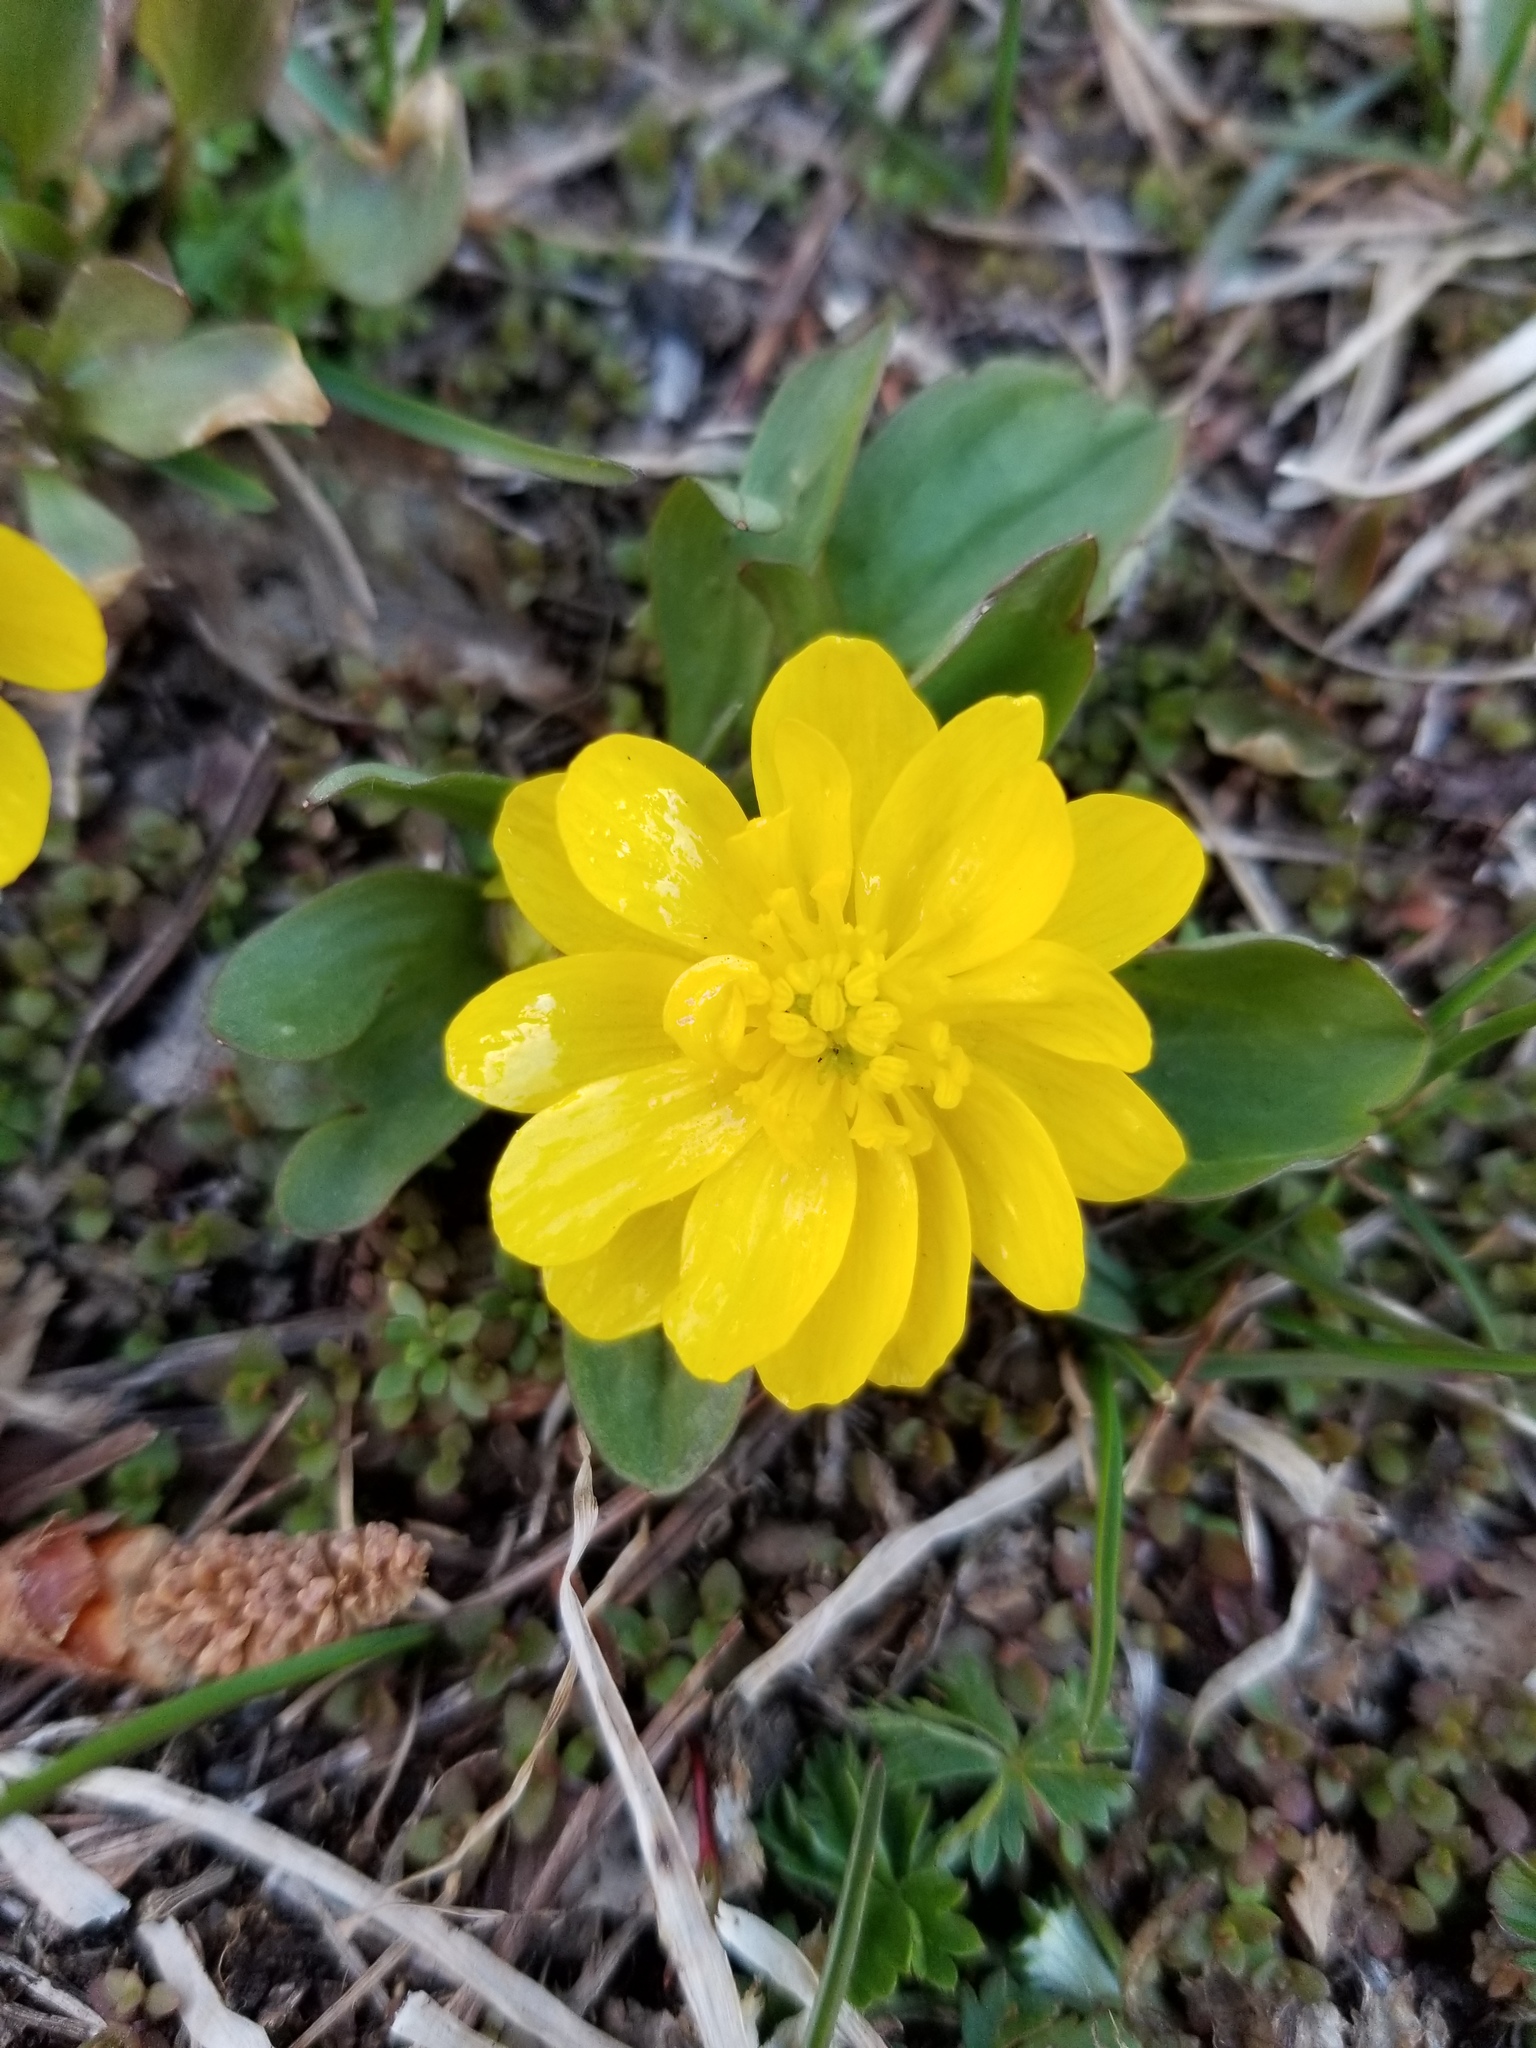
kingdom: Plantae
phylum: Tracheophyta
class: Magnoliopsida
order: Ranunculales
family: Ranunculaceae
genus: Ranunculus
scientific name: Ranunculus glaberrimus
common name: Sagebrush buttercup
